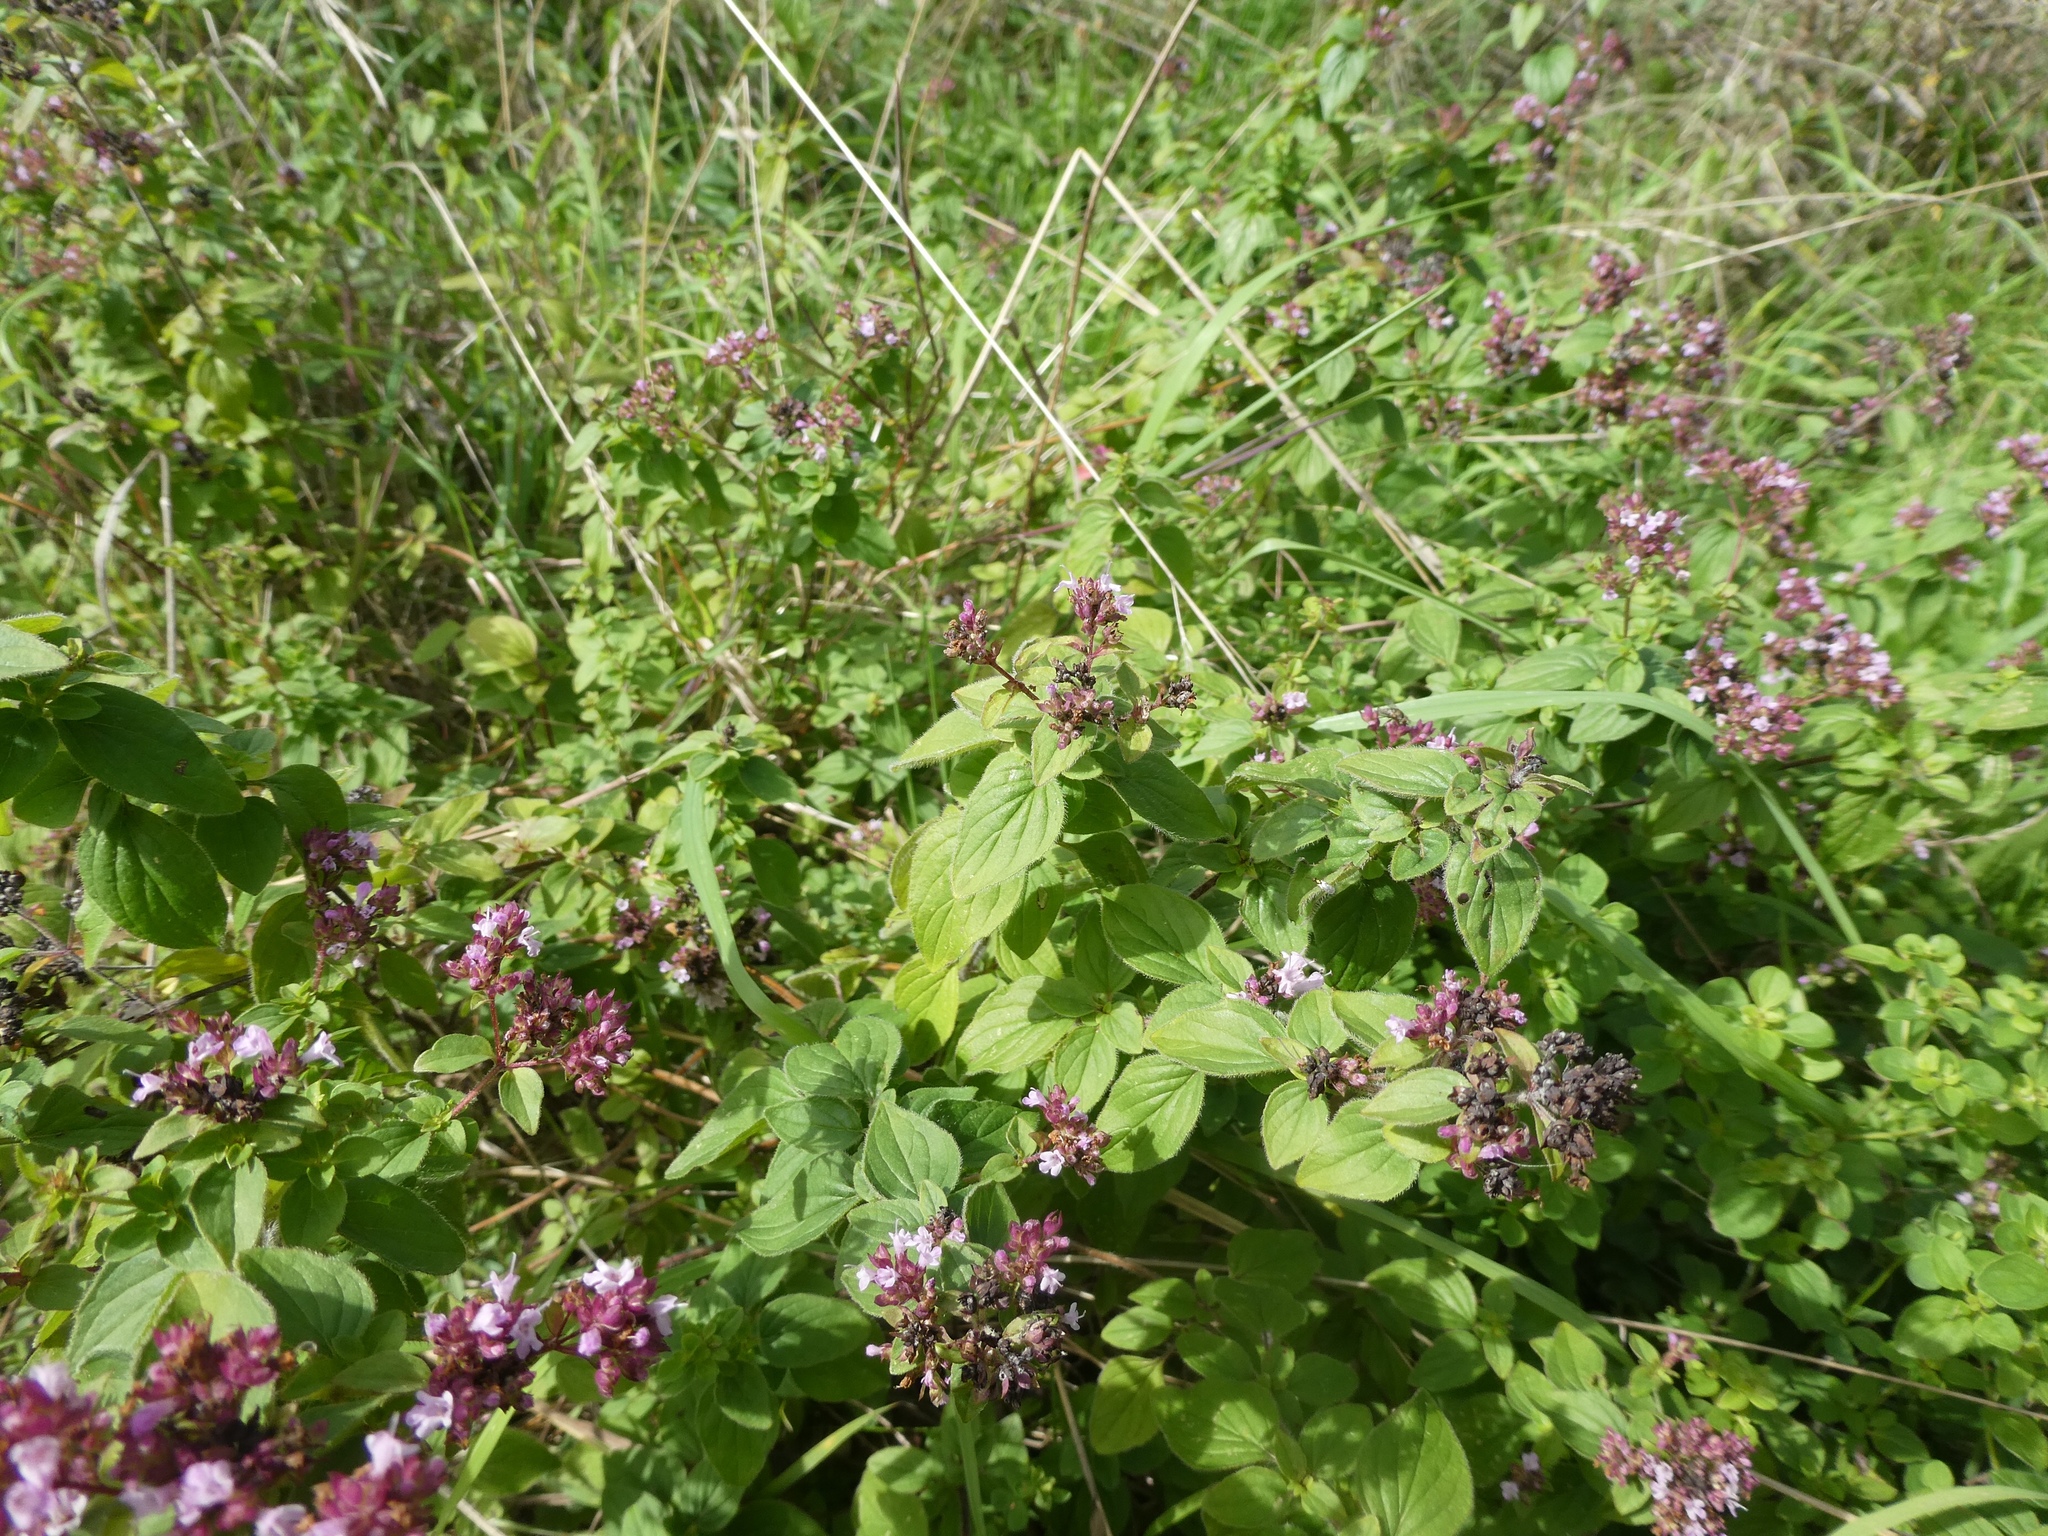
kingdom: Plantae
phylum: Tracheophyta
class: Magnoliopsida
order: Lamiales
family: Lamiaceae
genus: Origanum
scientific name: Origanum vulgare
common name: Wild marjoram
